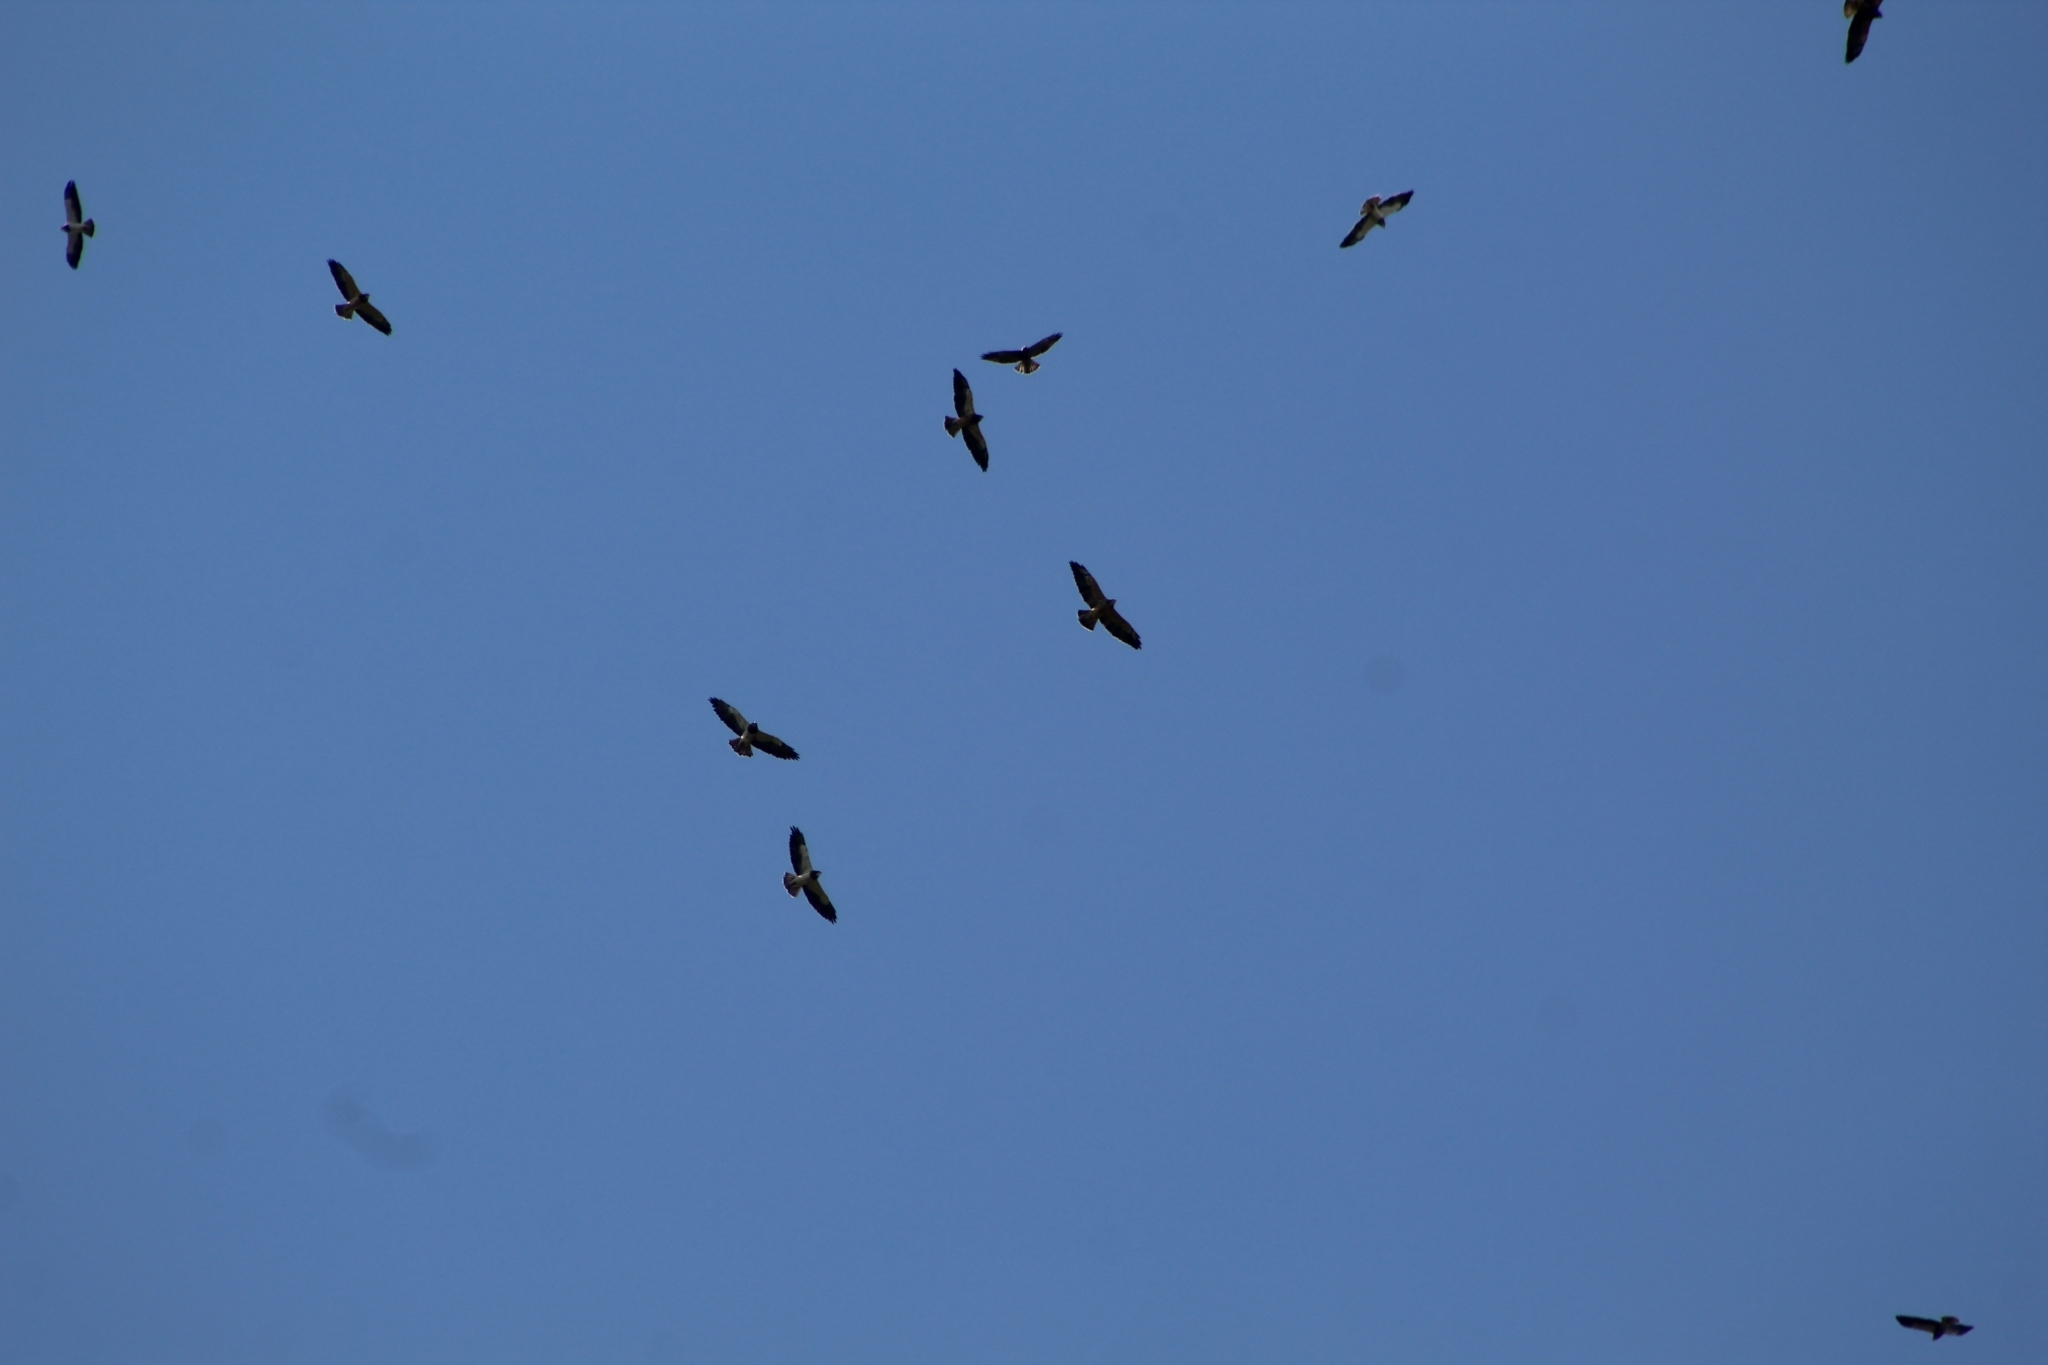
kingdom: Animalia
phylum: Chordata
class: Aves
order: Accipitriformes
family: Accipitridae
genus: Buteo
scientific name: Buteo swainsoni
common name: Swainson's hawk
